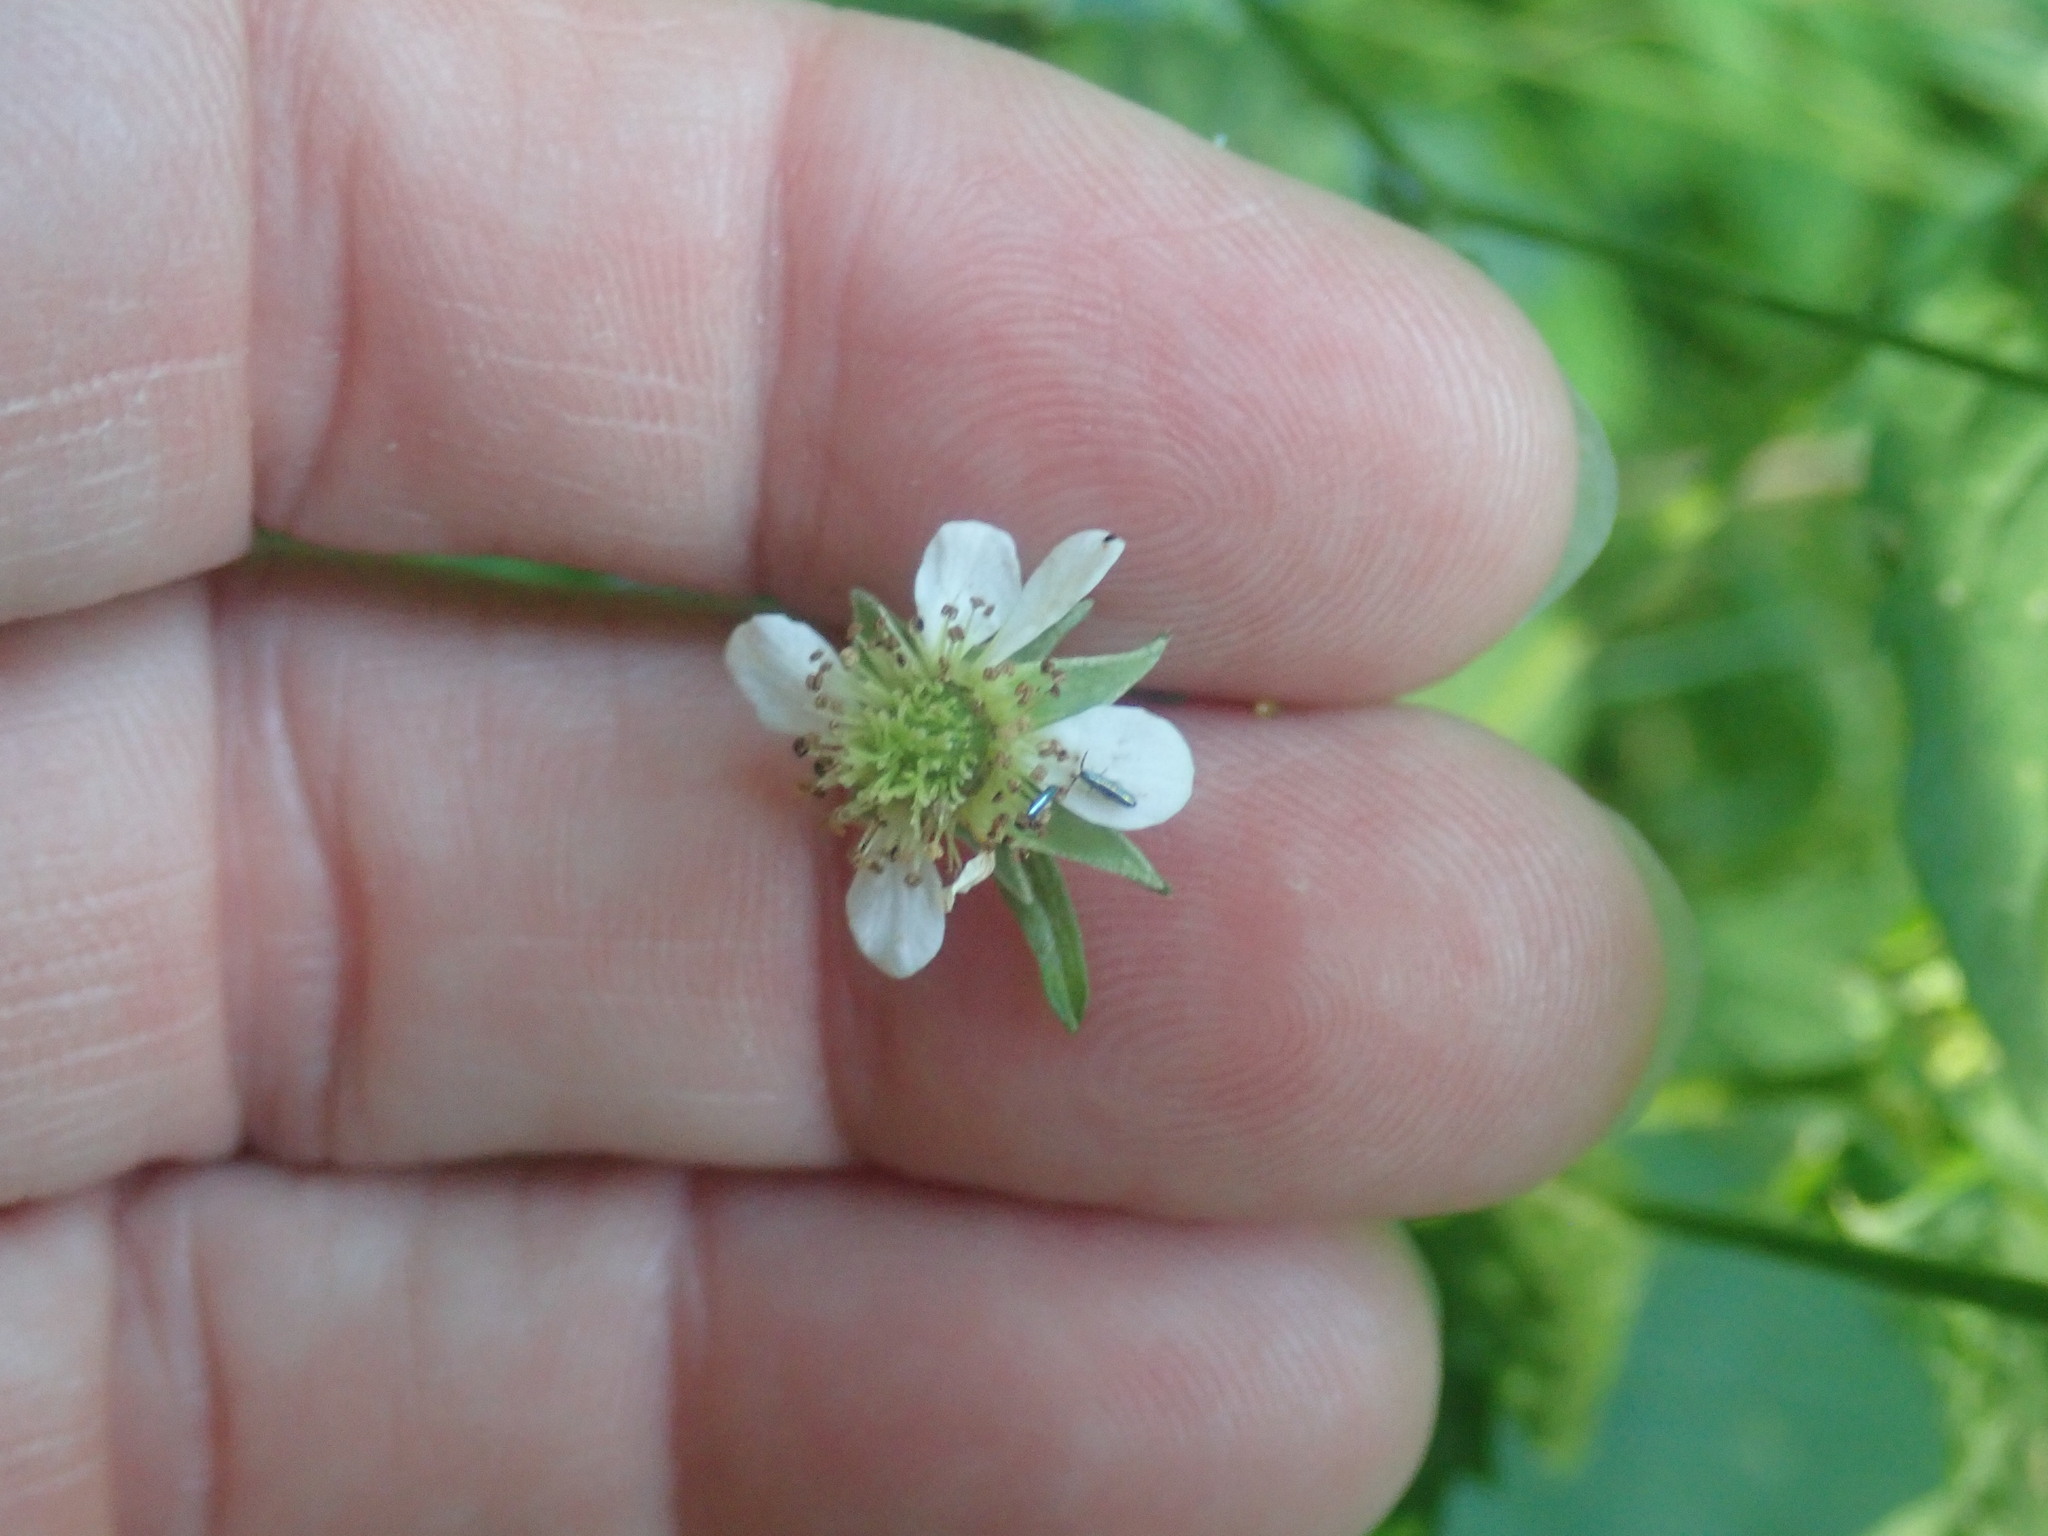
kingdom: Plantae
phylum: Tracheophyta
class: Magnoliopsida
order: Rosales
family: Rosaceae
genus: Geum
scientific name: Geum canadense
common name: White avens
